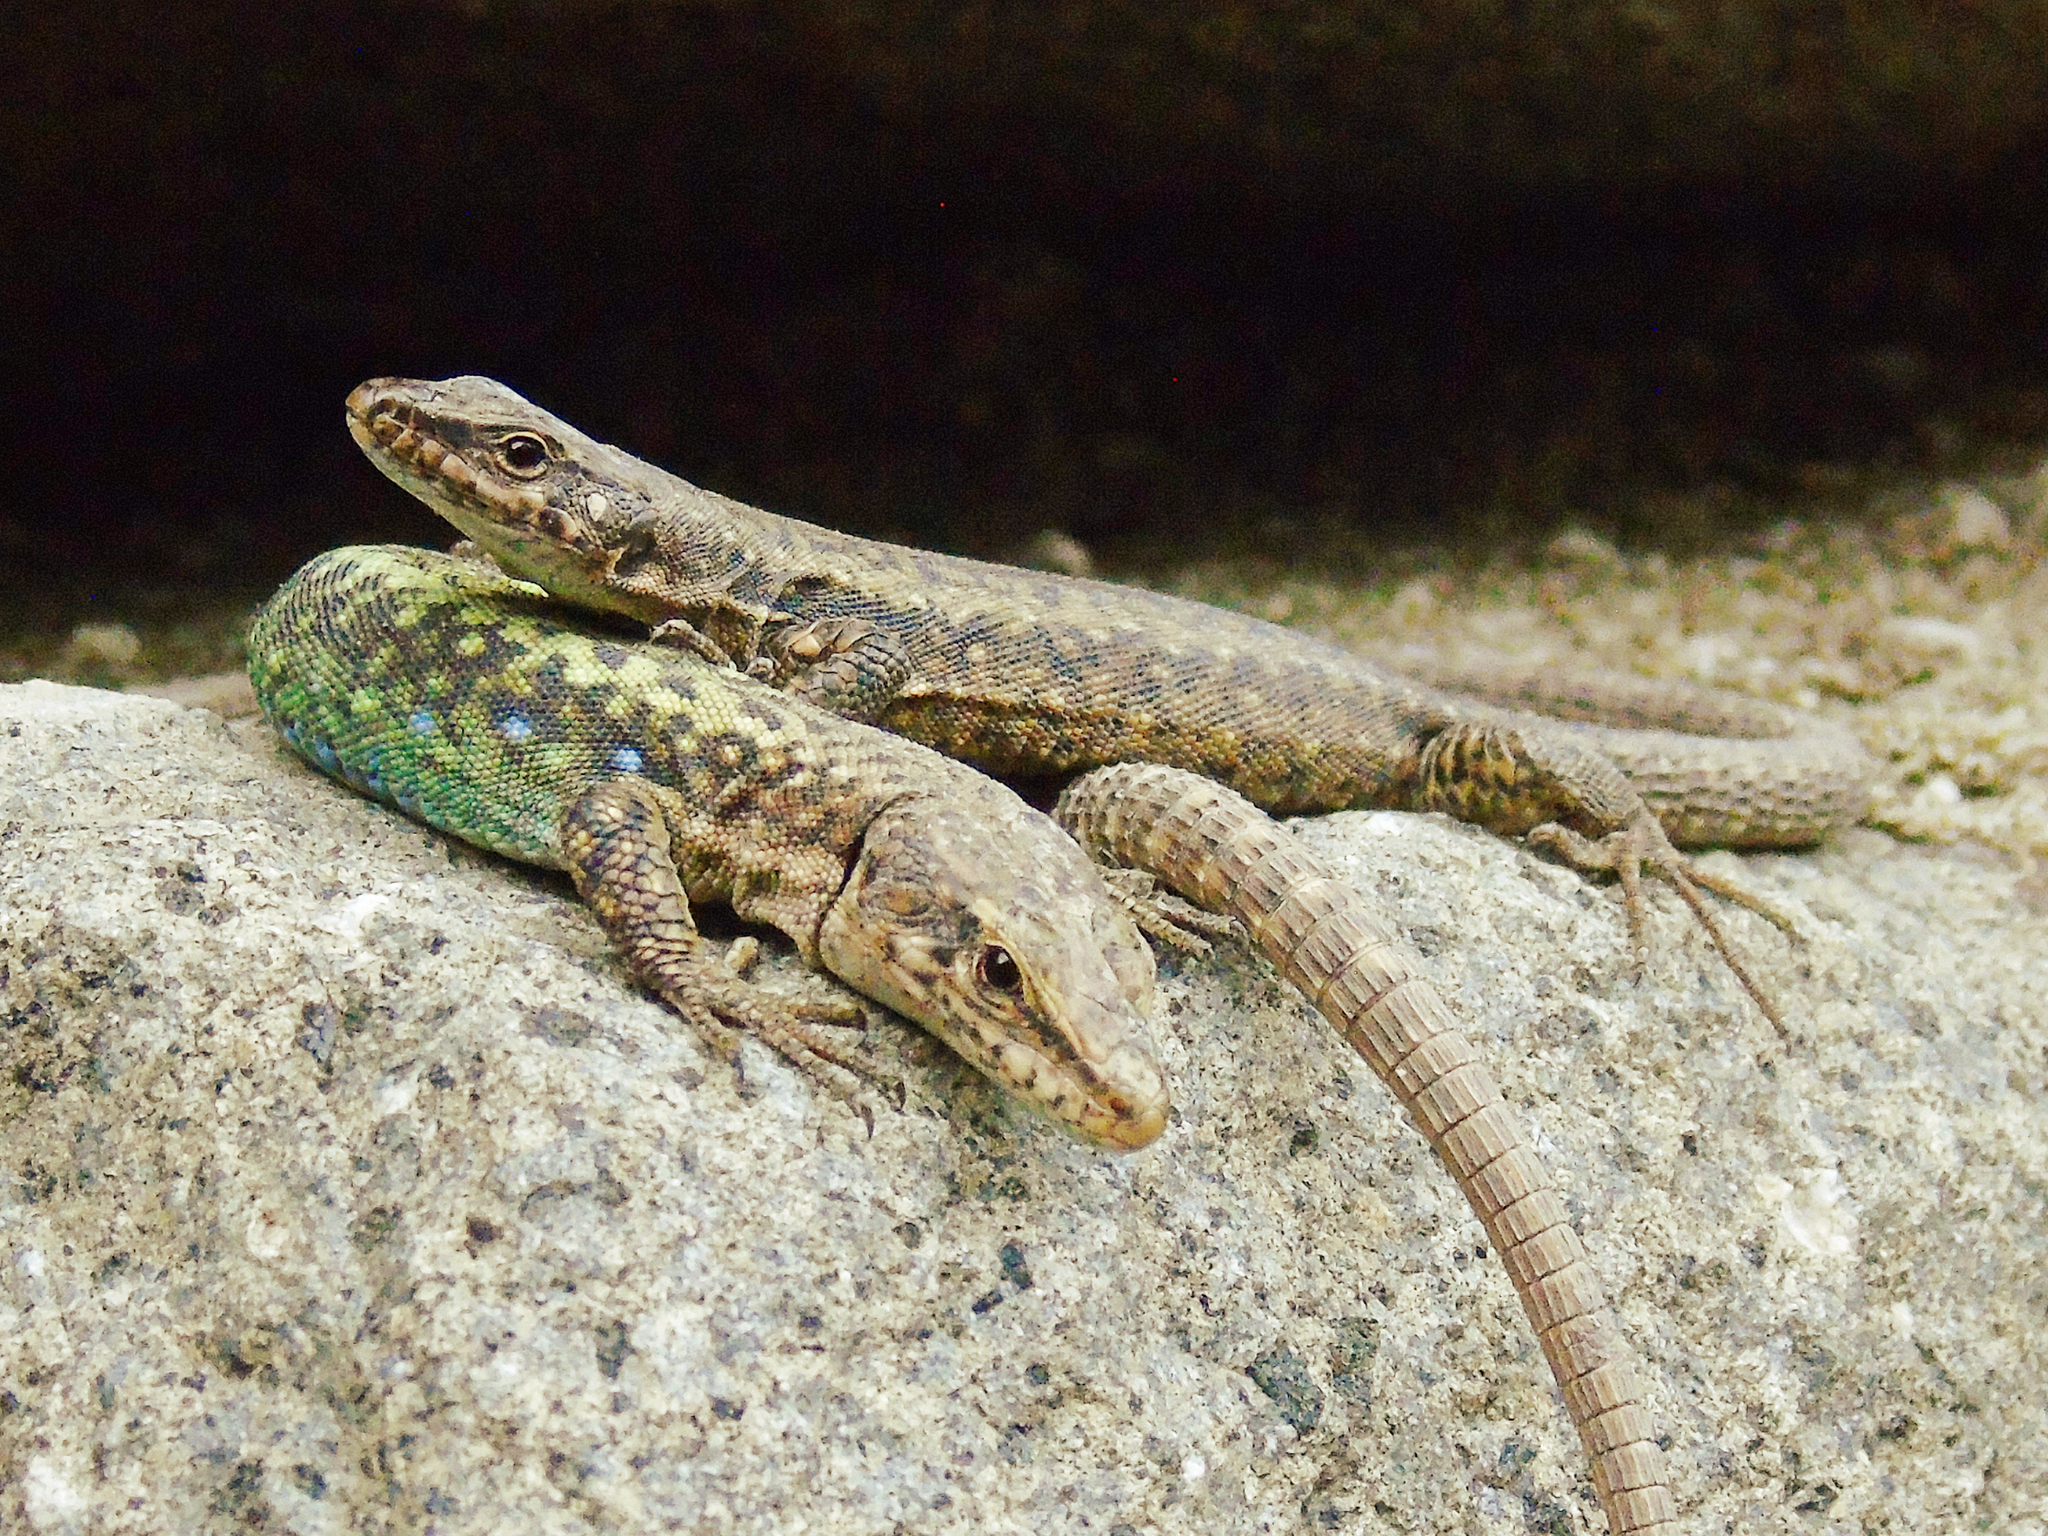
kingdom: Animalia
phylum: Chordata
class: Squamata
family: Lacertidae
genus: Darevskia
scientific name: Darevskia rudis
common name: Spiny-tailed lizard
